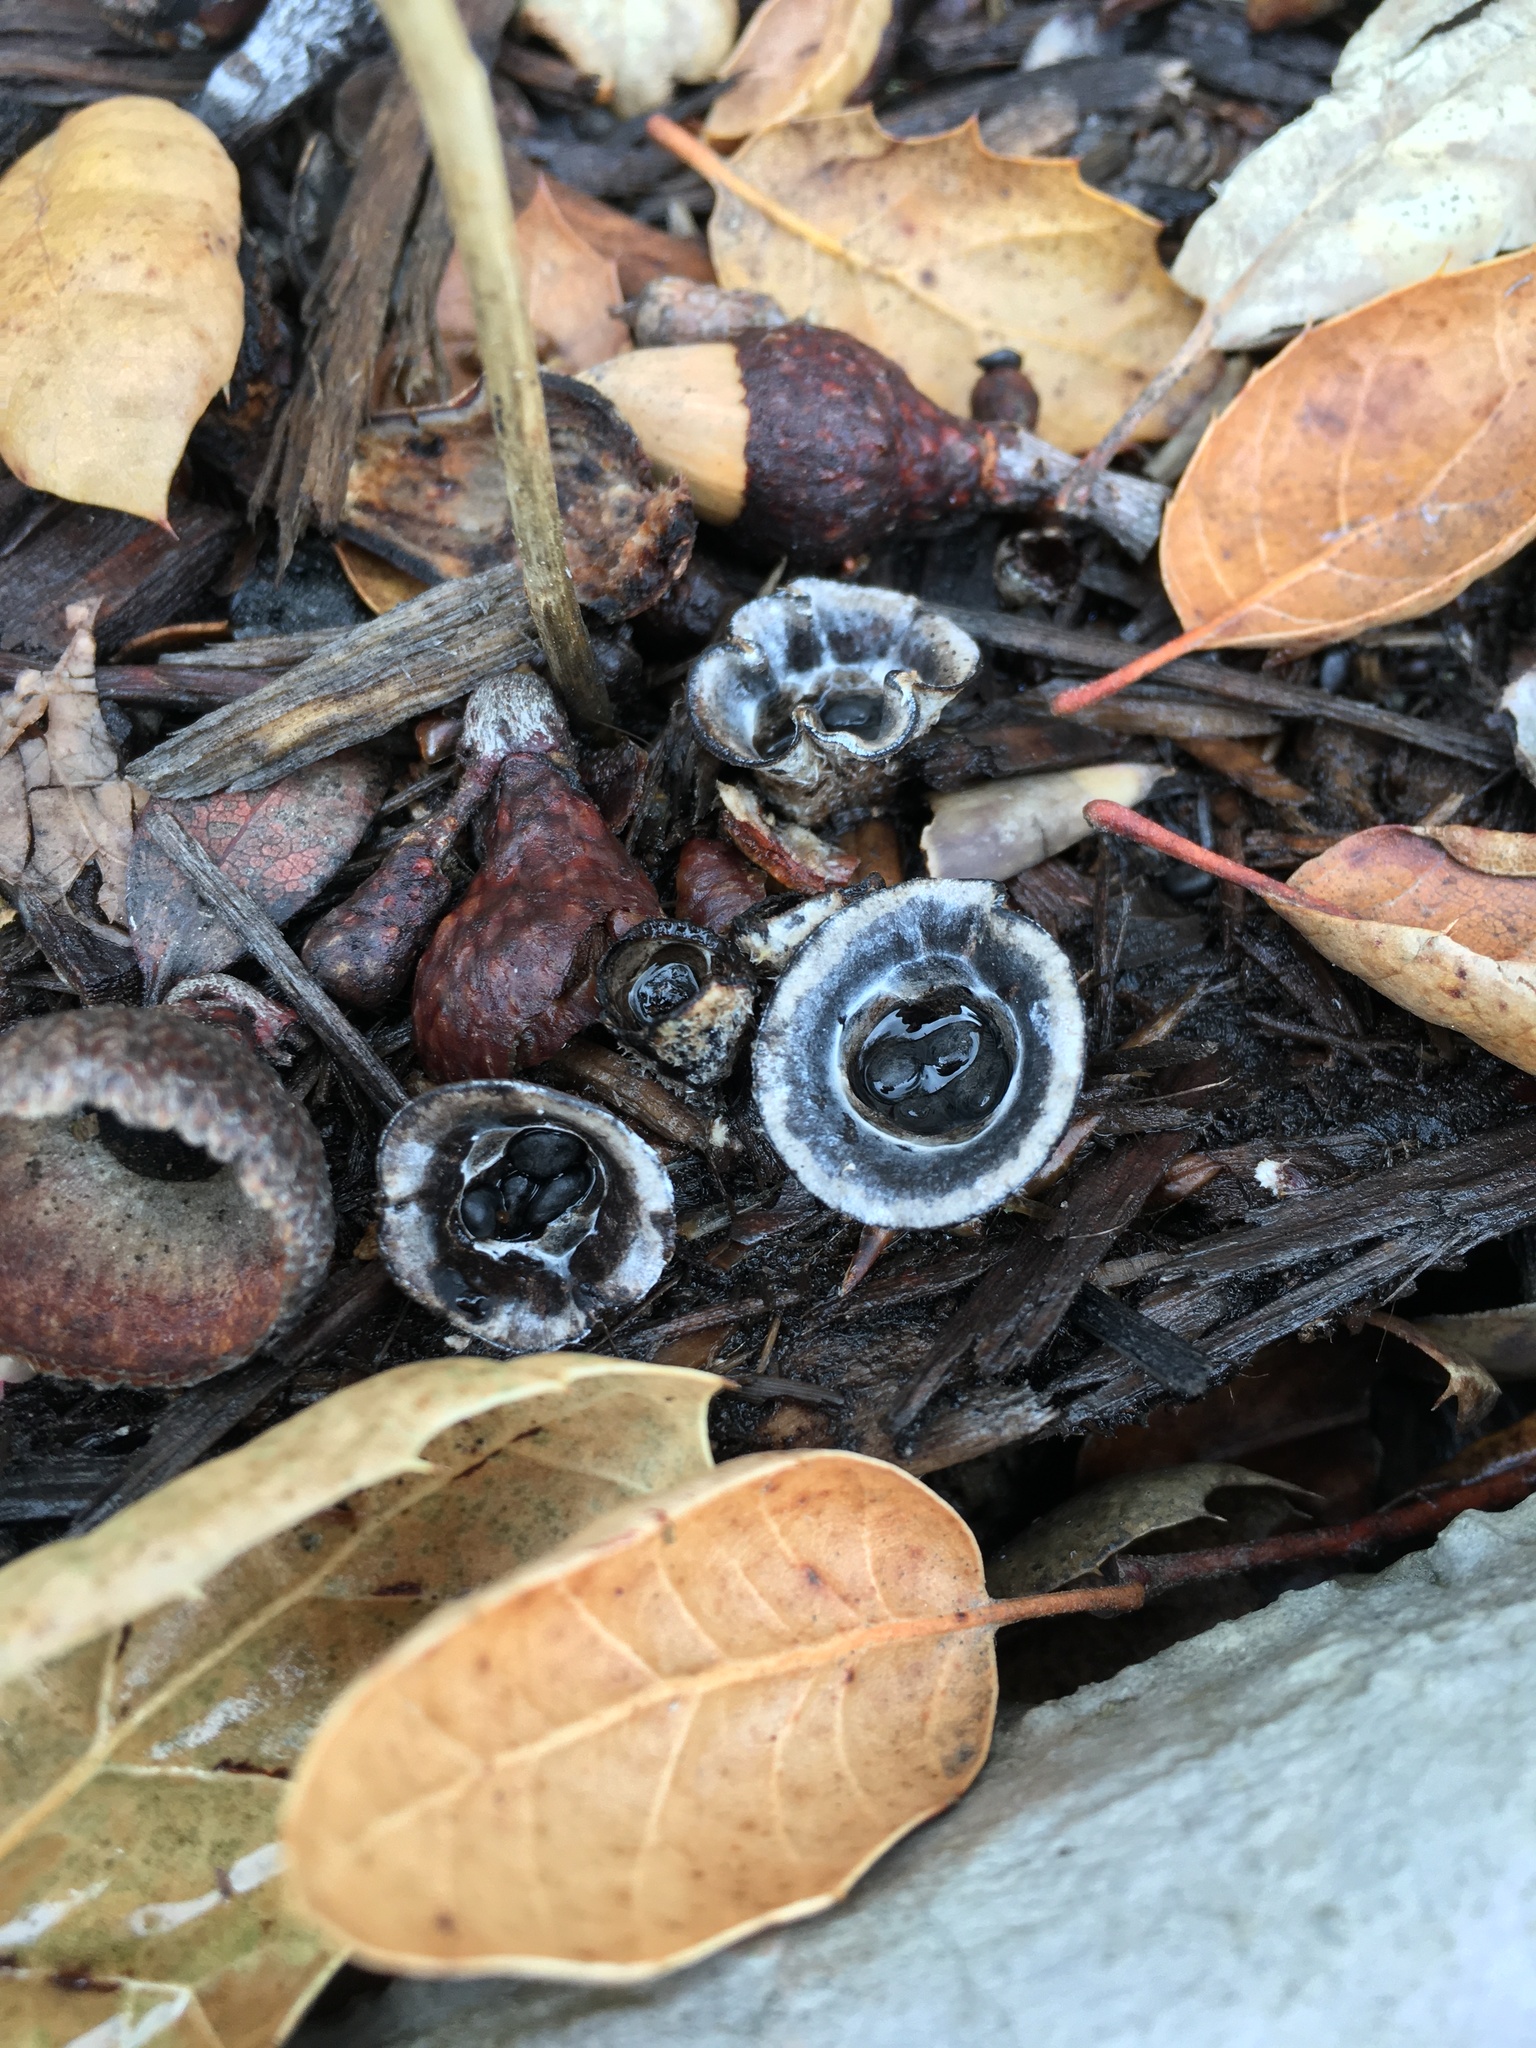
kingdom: Fungi
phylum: Basidiomycota
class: Agaricomycetes
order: Agaricales
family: Agaricaceae
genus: Cyathus
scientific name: Cyathus olla
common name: Field bird's nest
